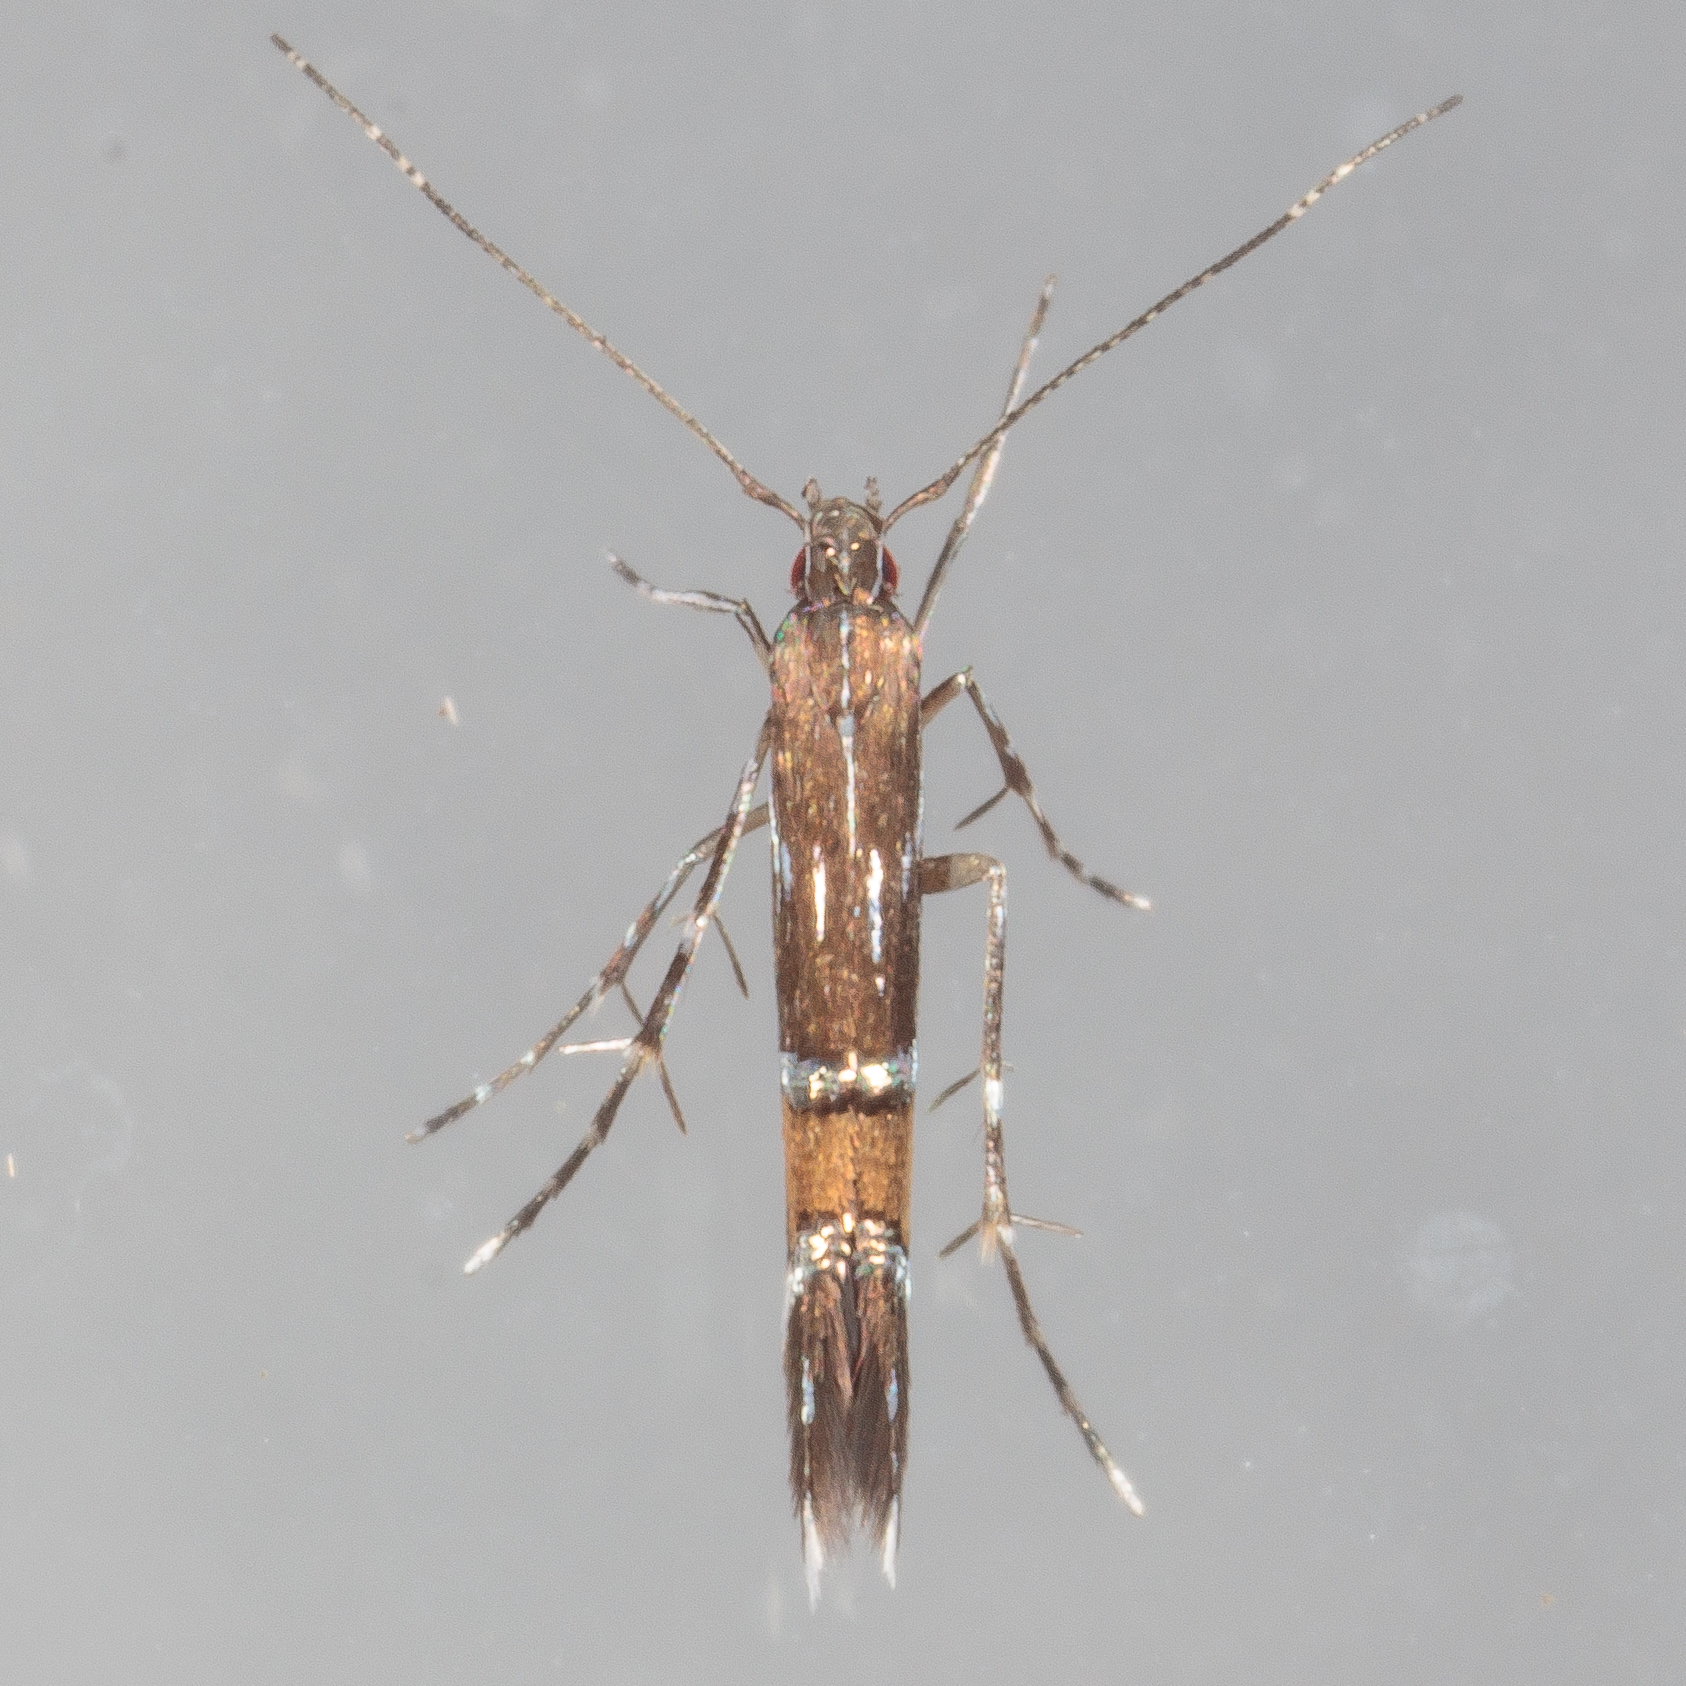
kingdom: Animalia
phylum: Arthropoda
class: Insecta
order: Lepidoptera
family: Cosmopterigidae
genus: Cosmopterix
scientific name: Cosmopterix pulchrimella
